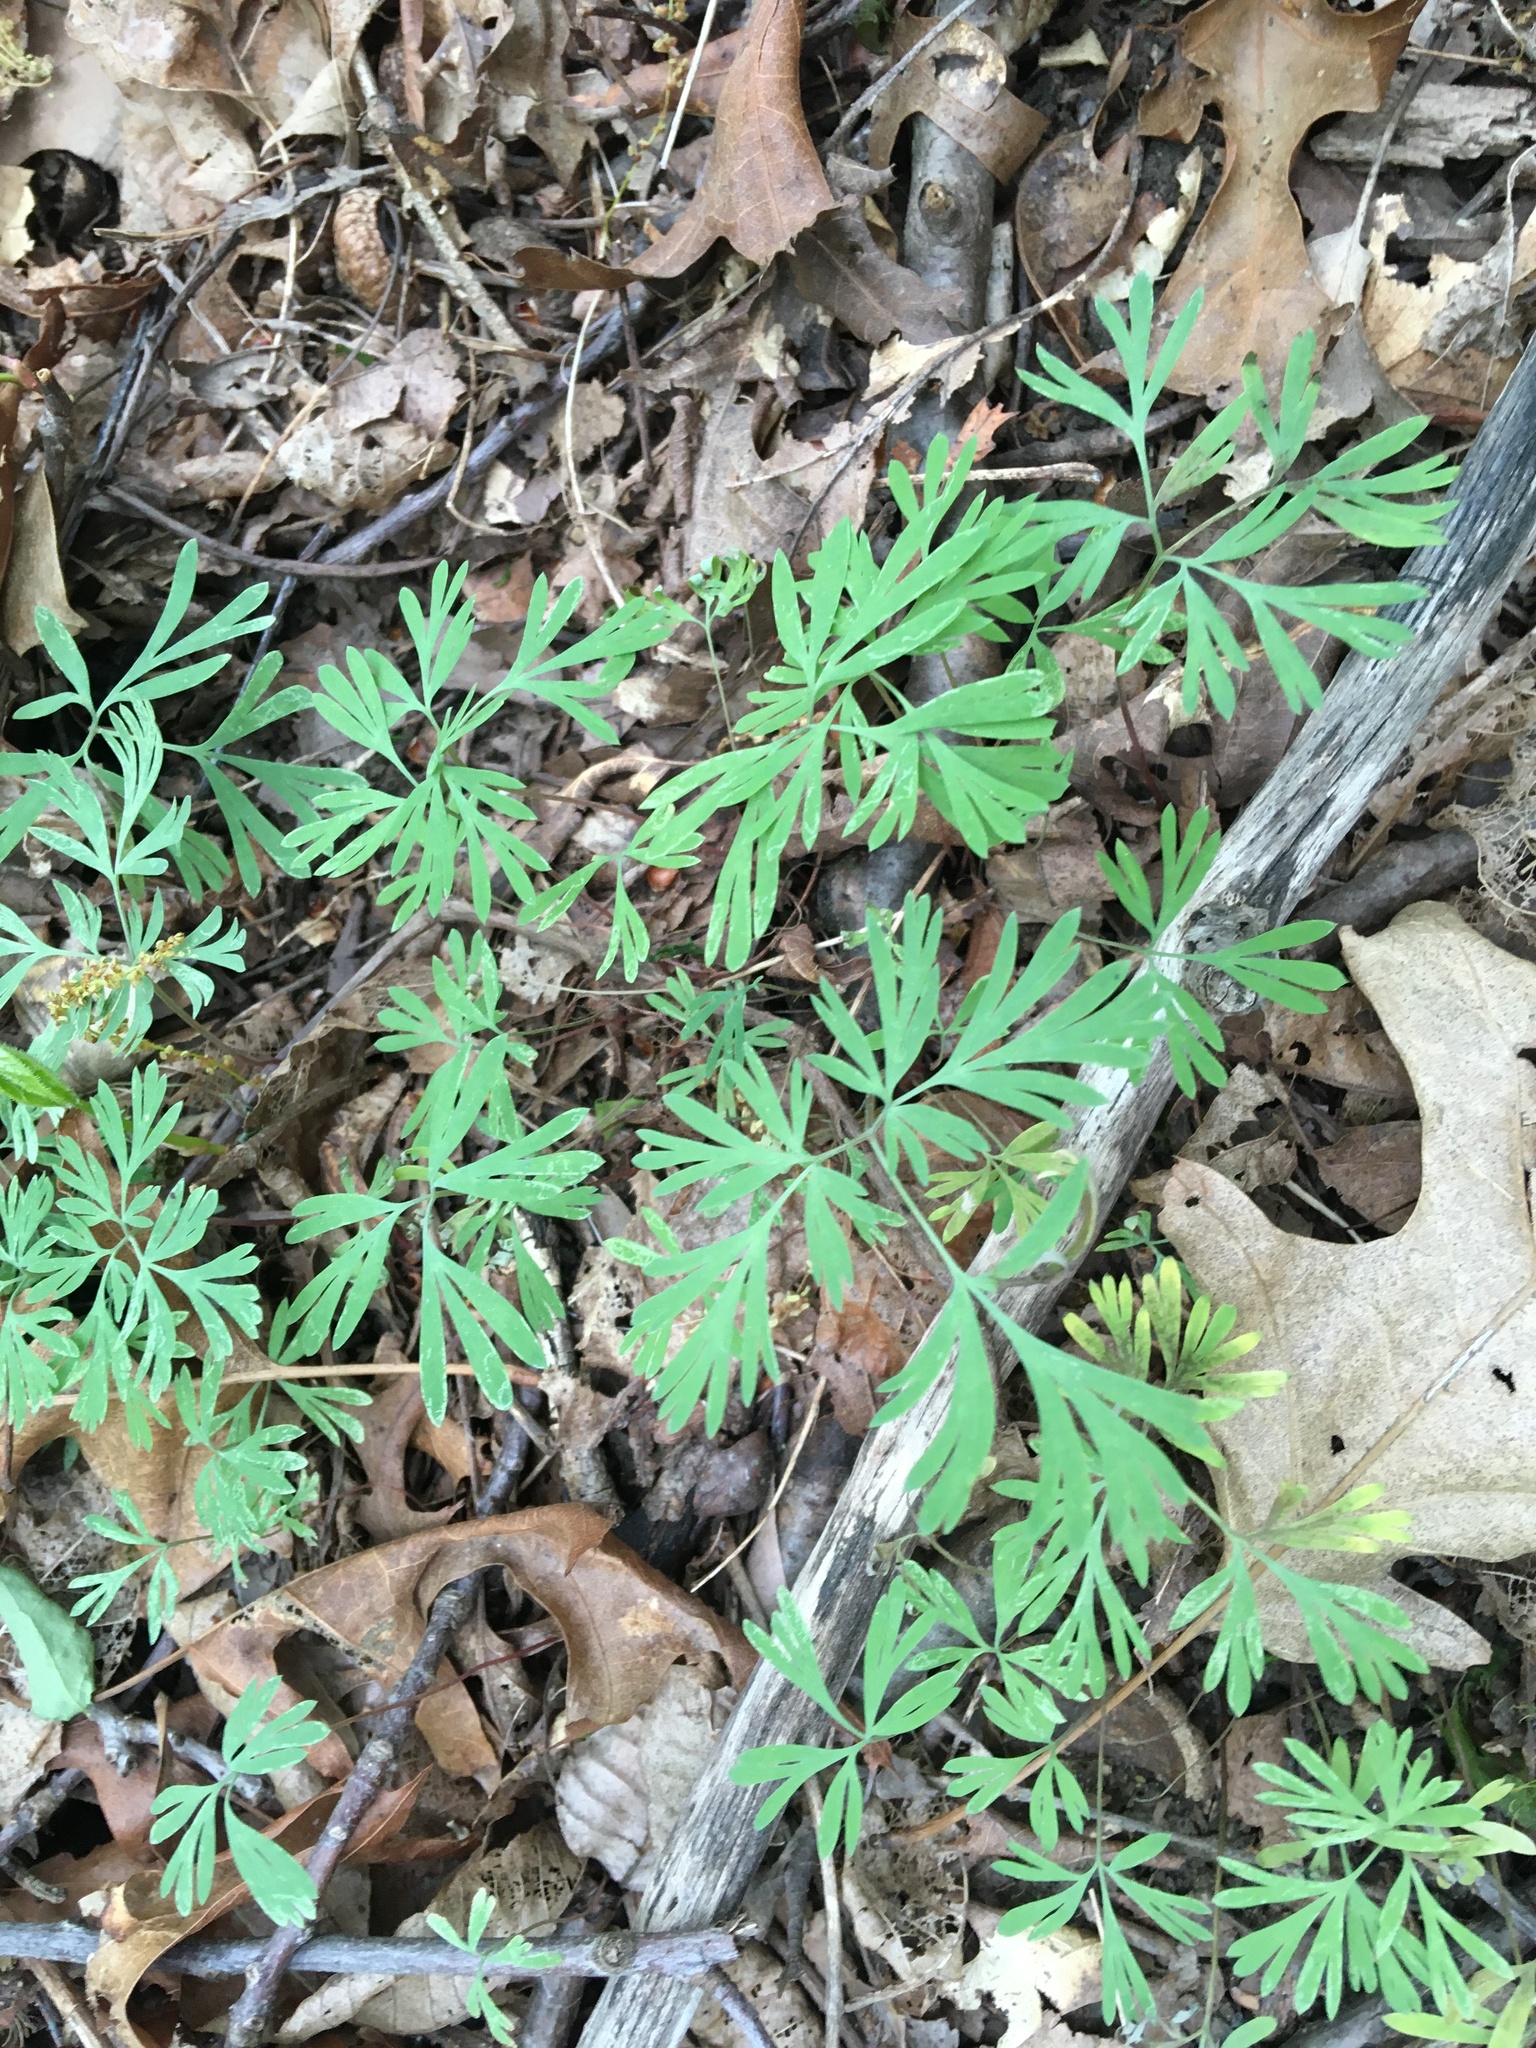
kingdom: Plantae
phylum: Tracheophyta
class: Magnoliopsida
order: Ranunculales
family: Papaveraceae
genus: Dicentra
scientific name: Dicentra cucullaria
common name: Dutchman's breeches
